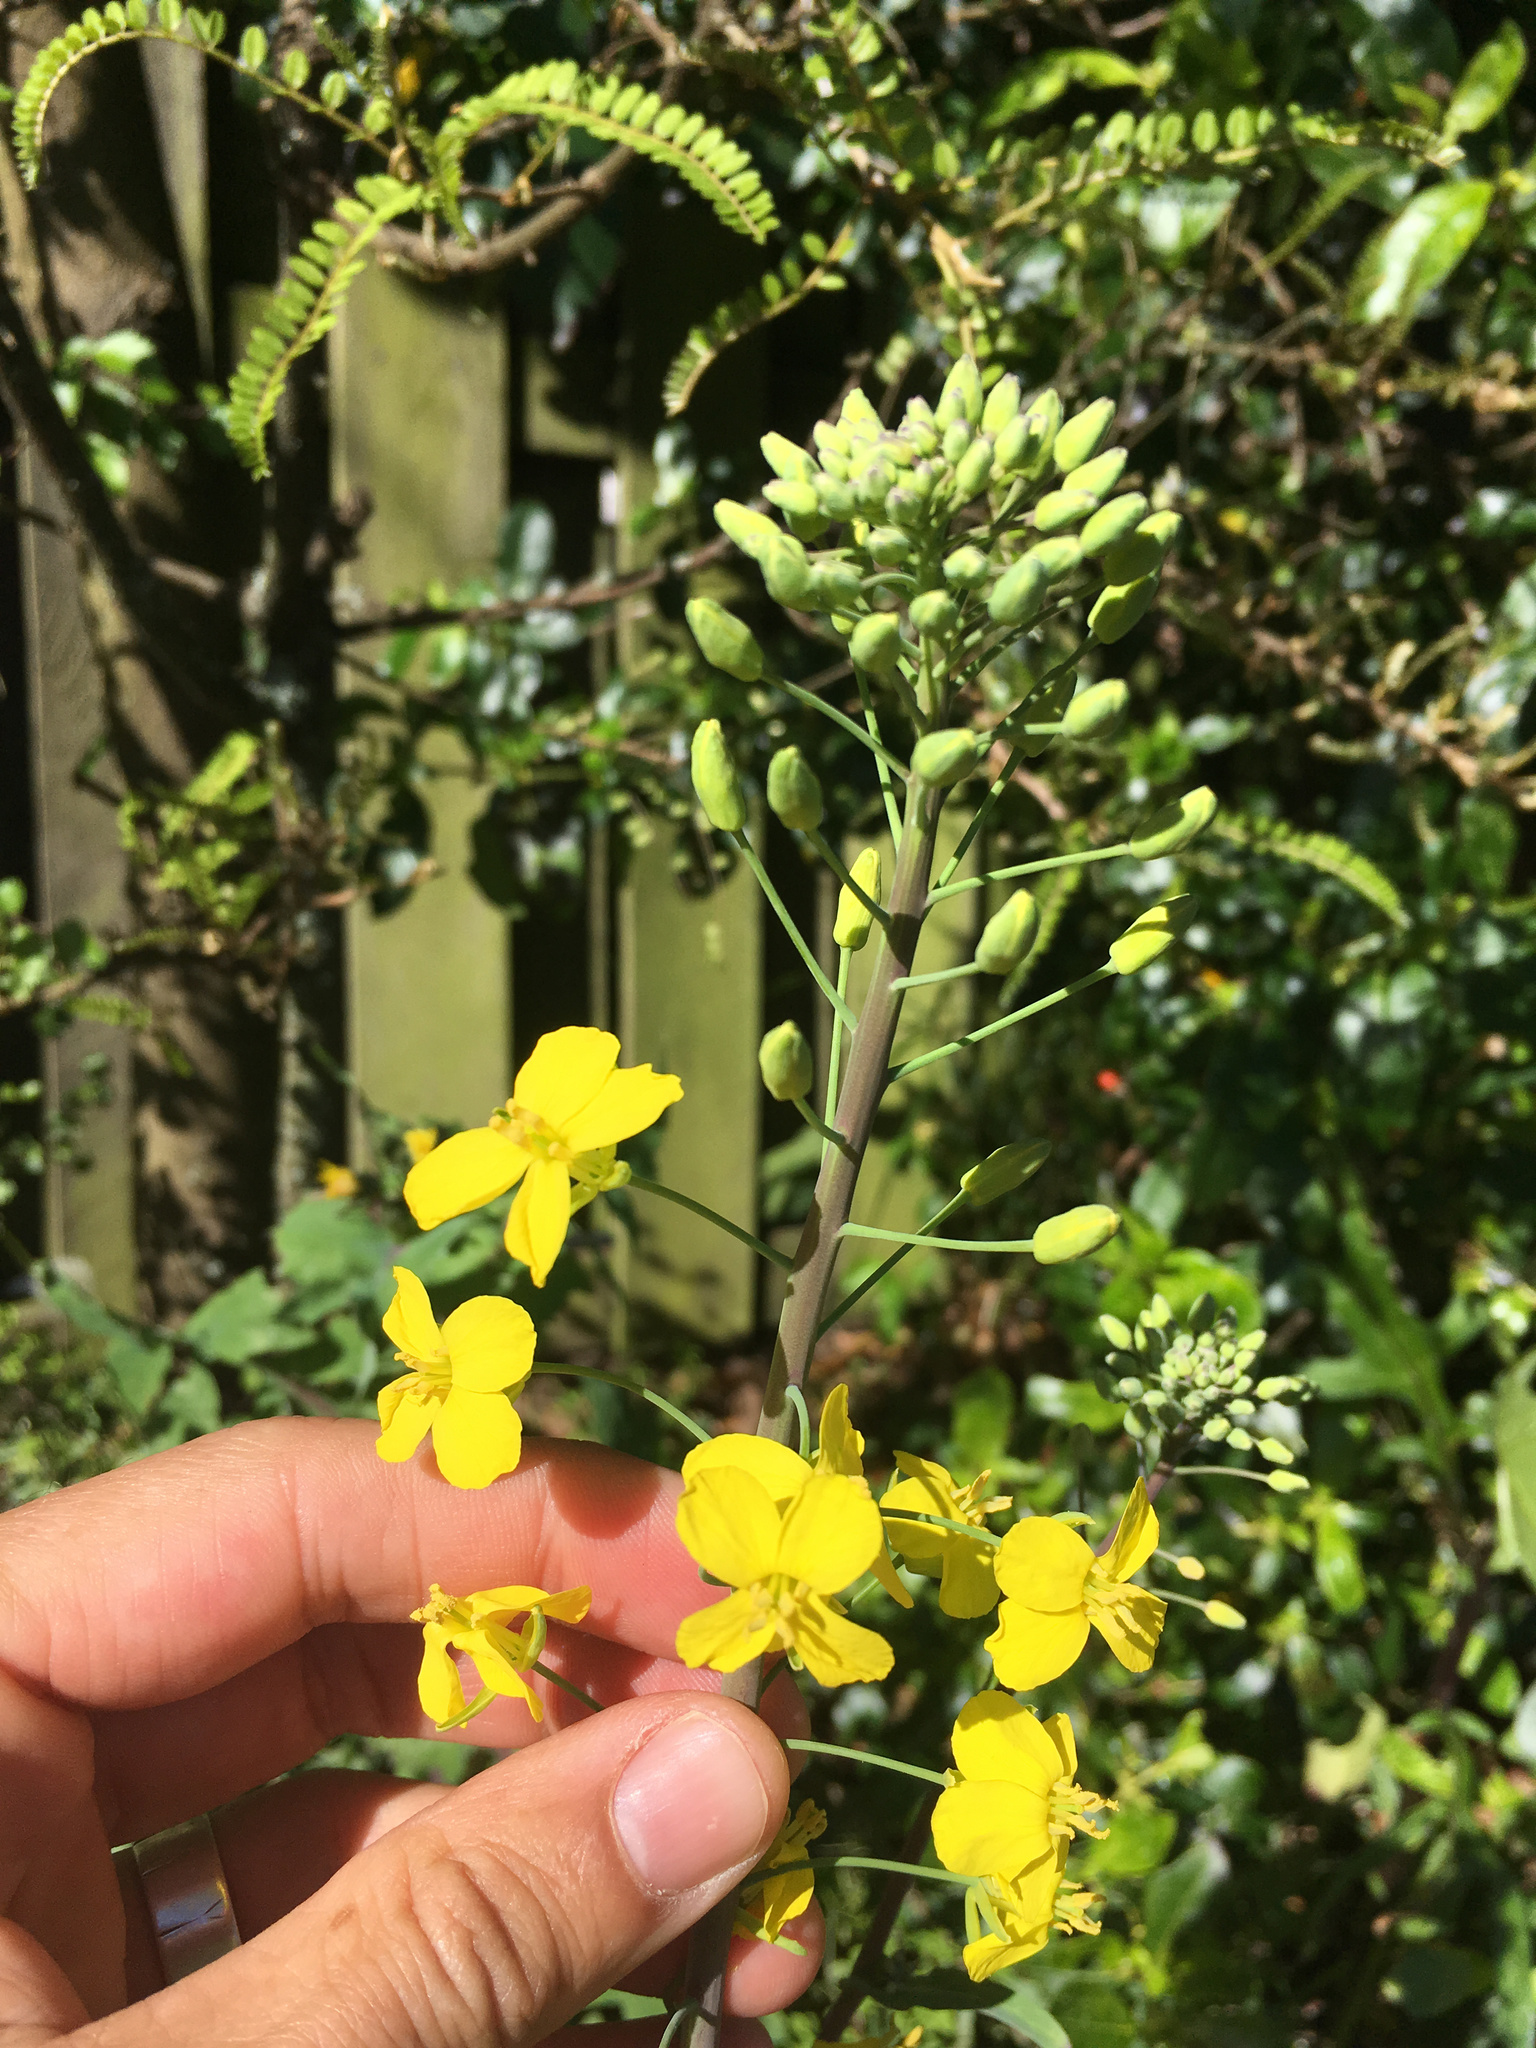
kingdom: Plantae
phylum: Tracheophyta
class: Magnoliopsida
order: Brassicales
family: Brassicaceae
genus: Brassica
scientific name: Brassica oleracea
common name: Cabbage
